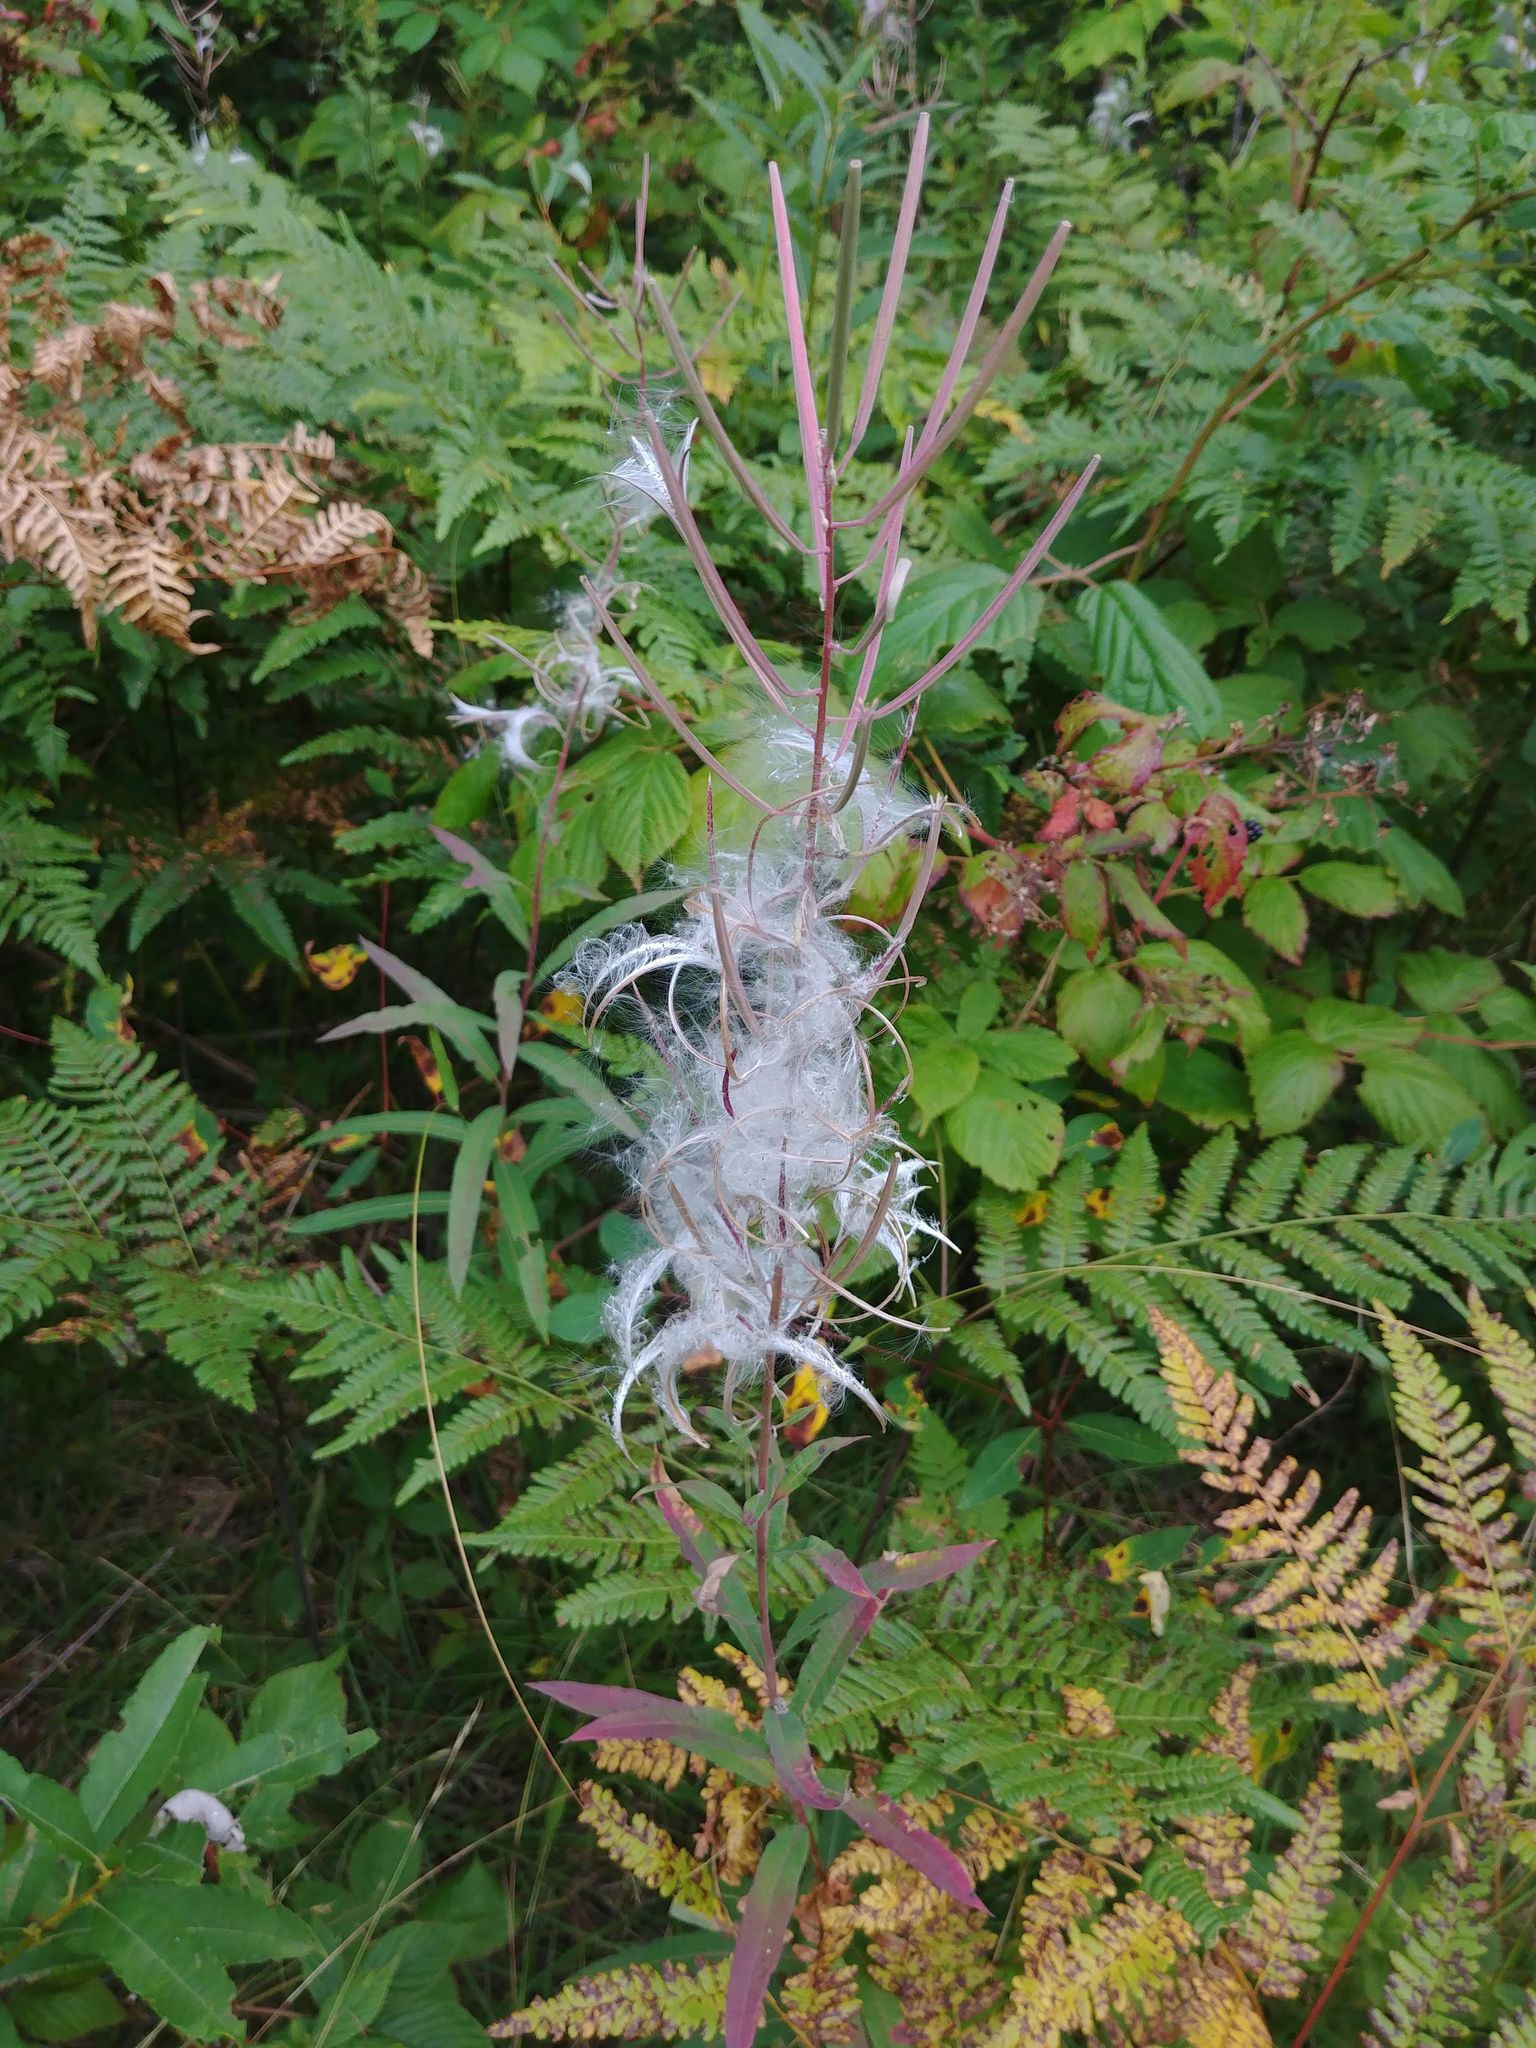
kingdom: Plantae
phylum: Tracheophyta
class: Magnoliopsida
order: Myrtales
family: Onagraceae
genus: Chamaenerion
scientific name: Chamaenerion angustifolium
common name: Fireweed
